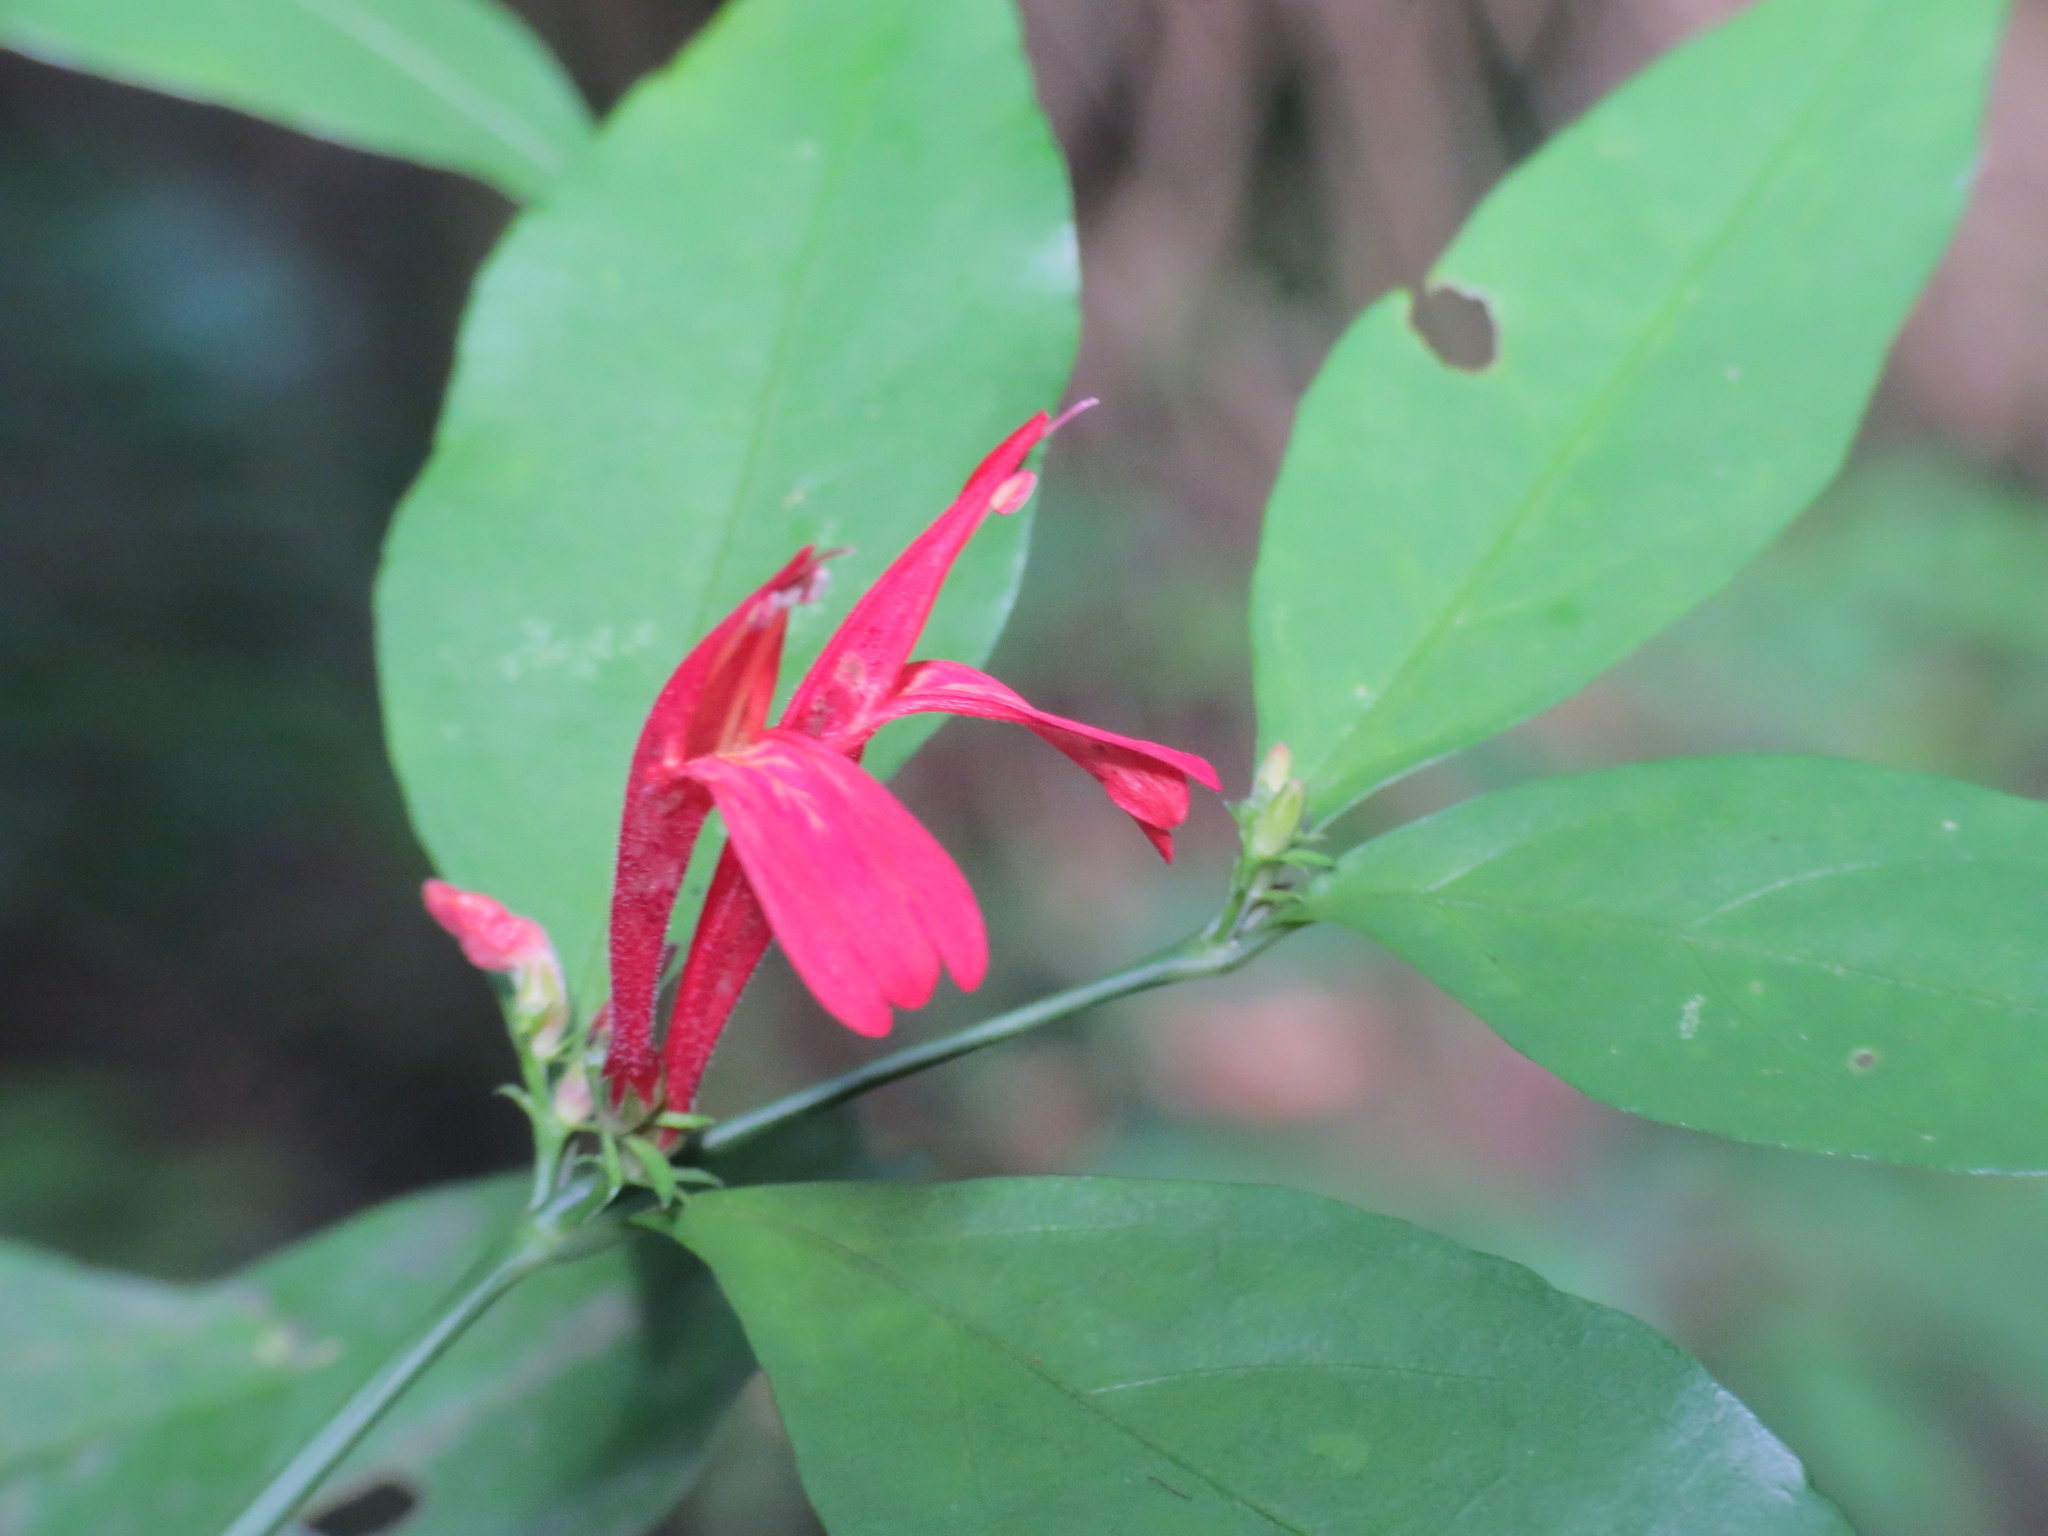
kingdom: Plantae
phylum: Tracheophyta
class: Magnoliopsida
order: Lamiales
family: Acanthaceae
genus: Justicia
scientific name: Justicia brasiliana
